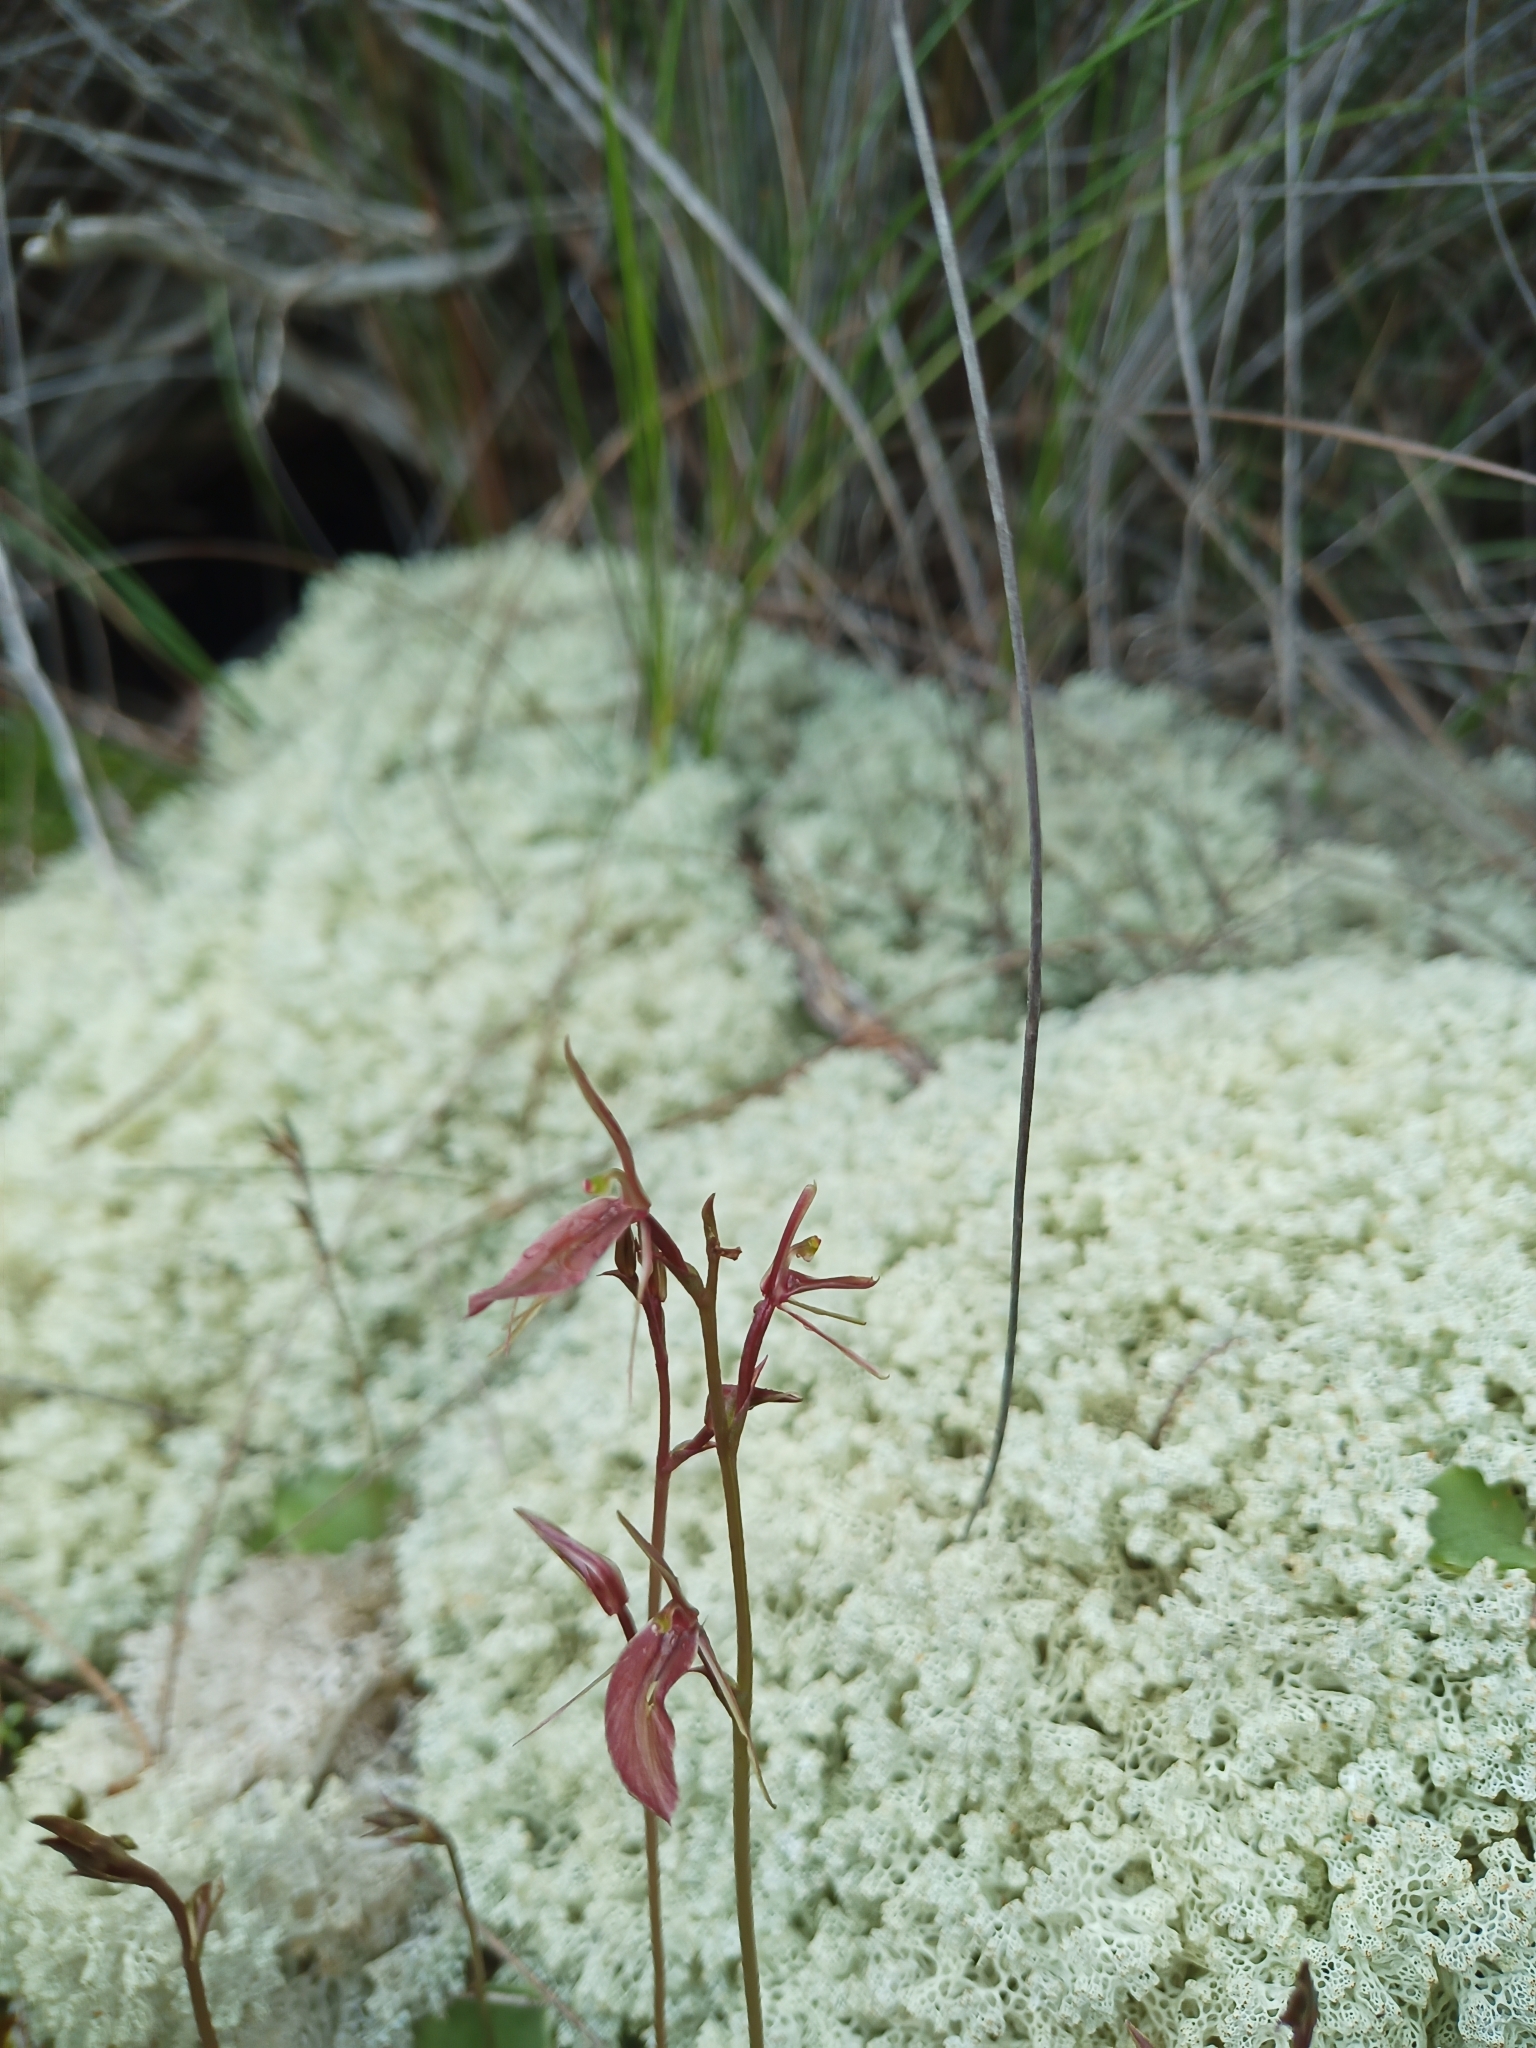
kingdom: Plantae
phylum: Tracheophyta
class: Liliopsida
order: Asparagales
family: Orchidaceae
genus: Cyrtostylis
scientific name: Cyrtostylis robusta
